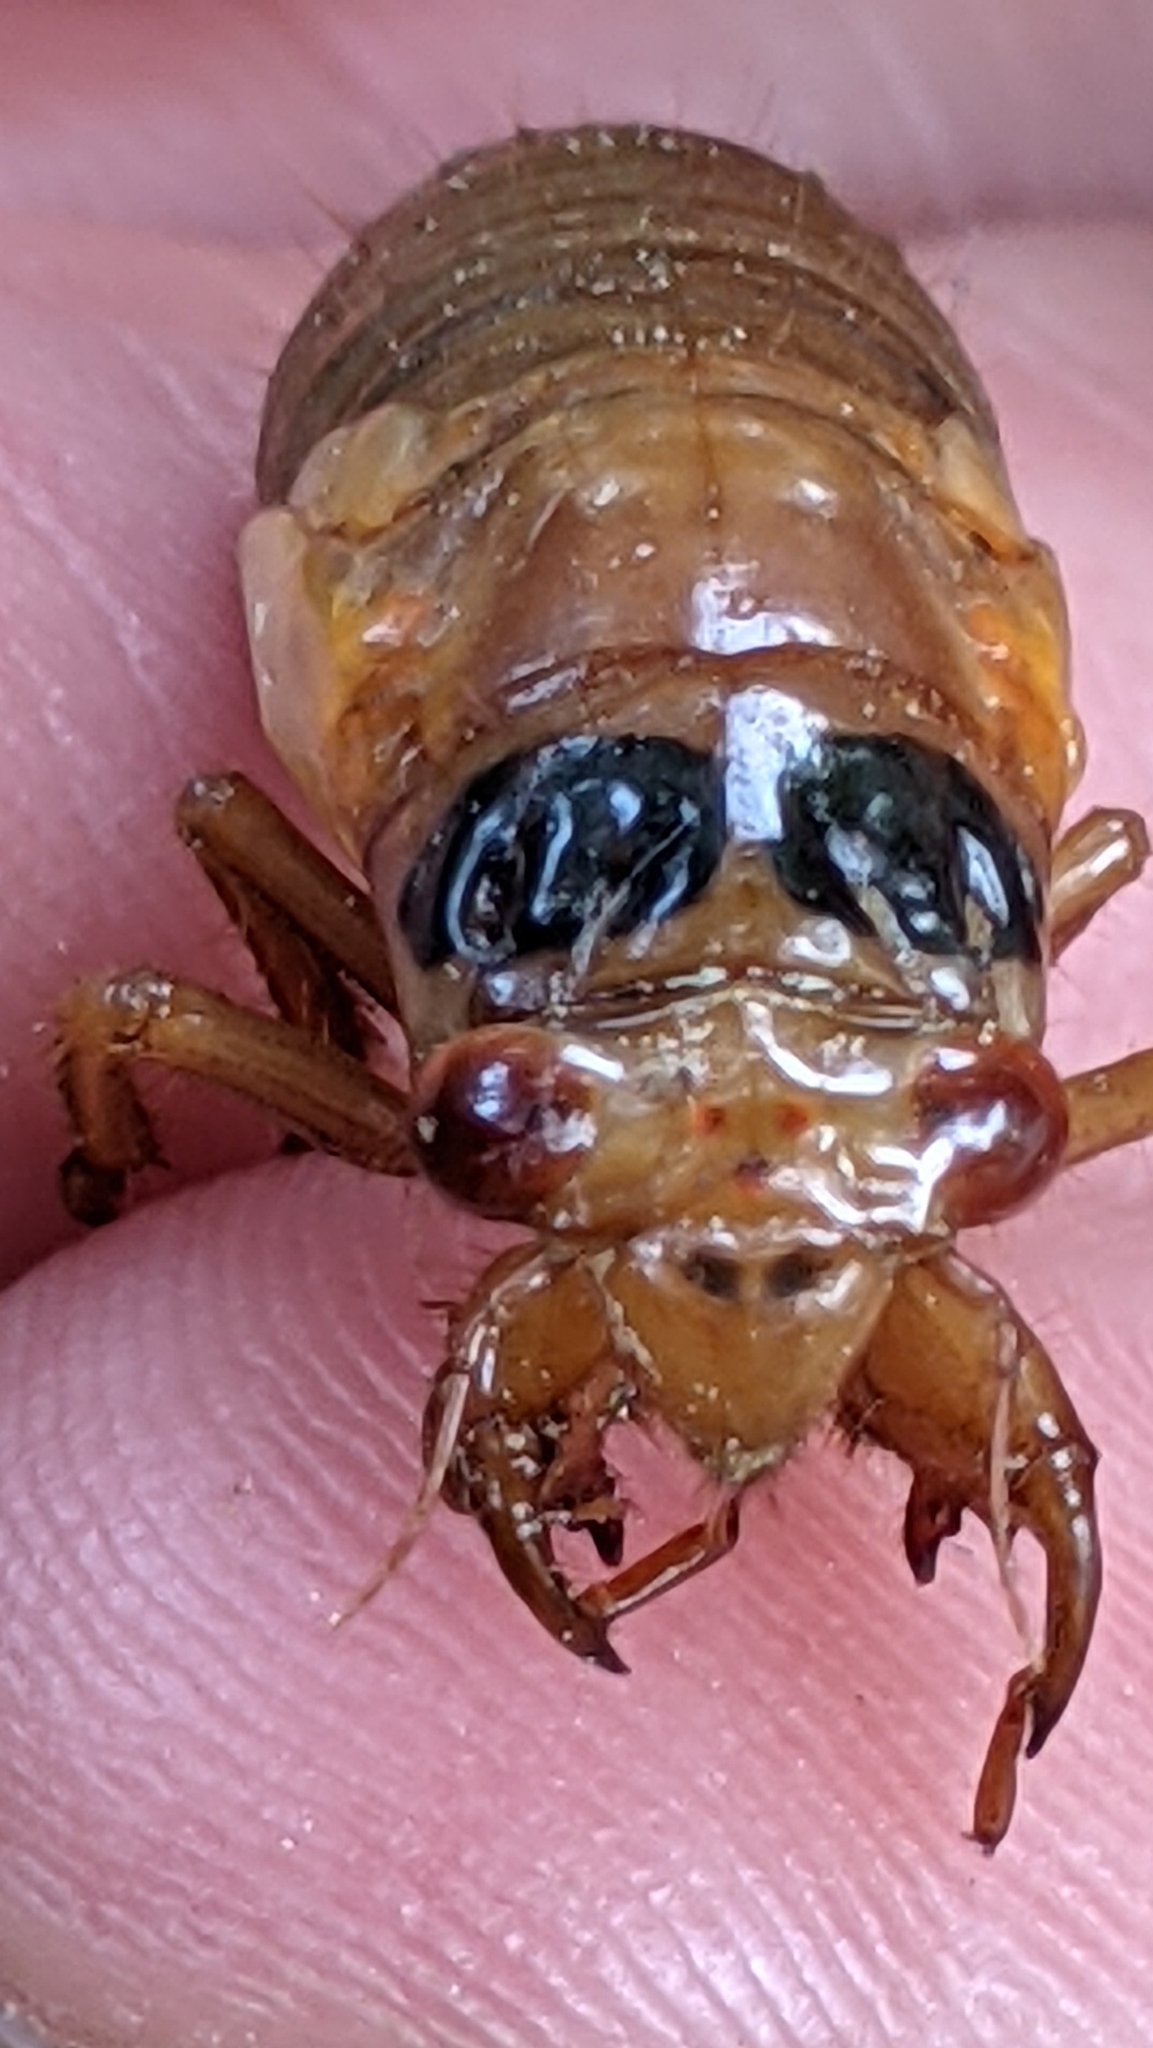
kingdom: Animalia
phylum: Arthropoda
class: Insecta
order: Hemiptera
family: Cicadidae
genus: Magicicada
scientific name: Magicicada
